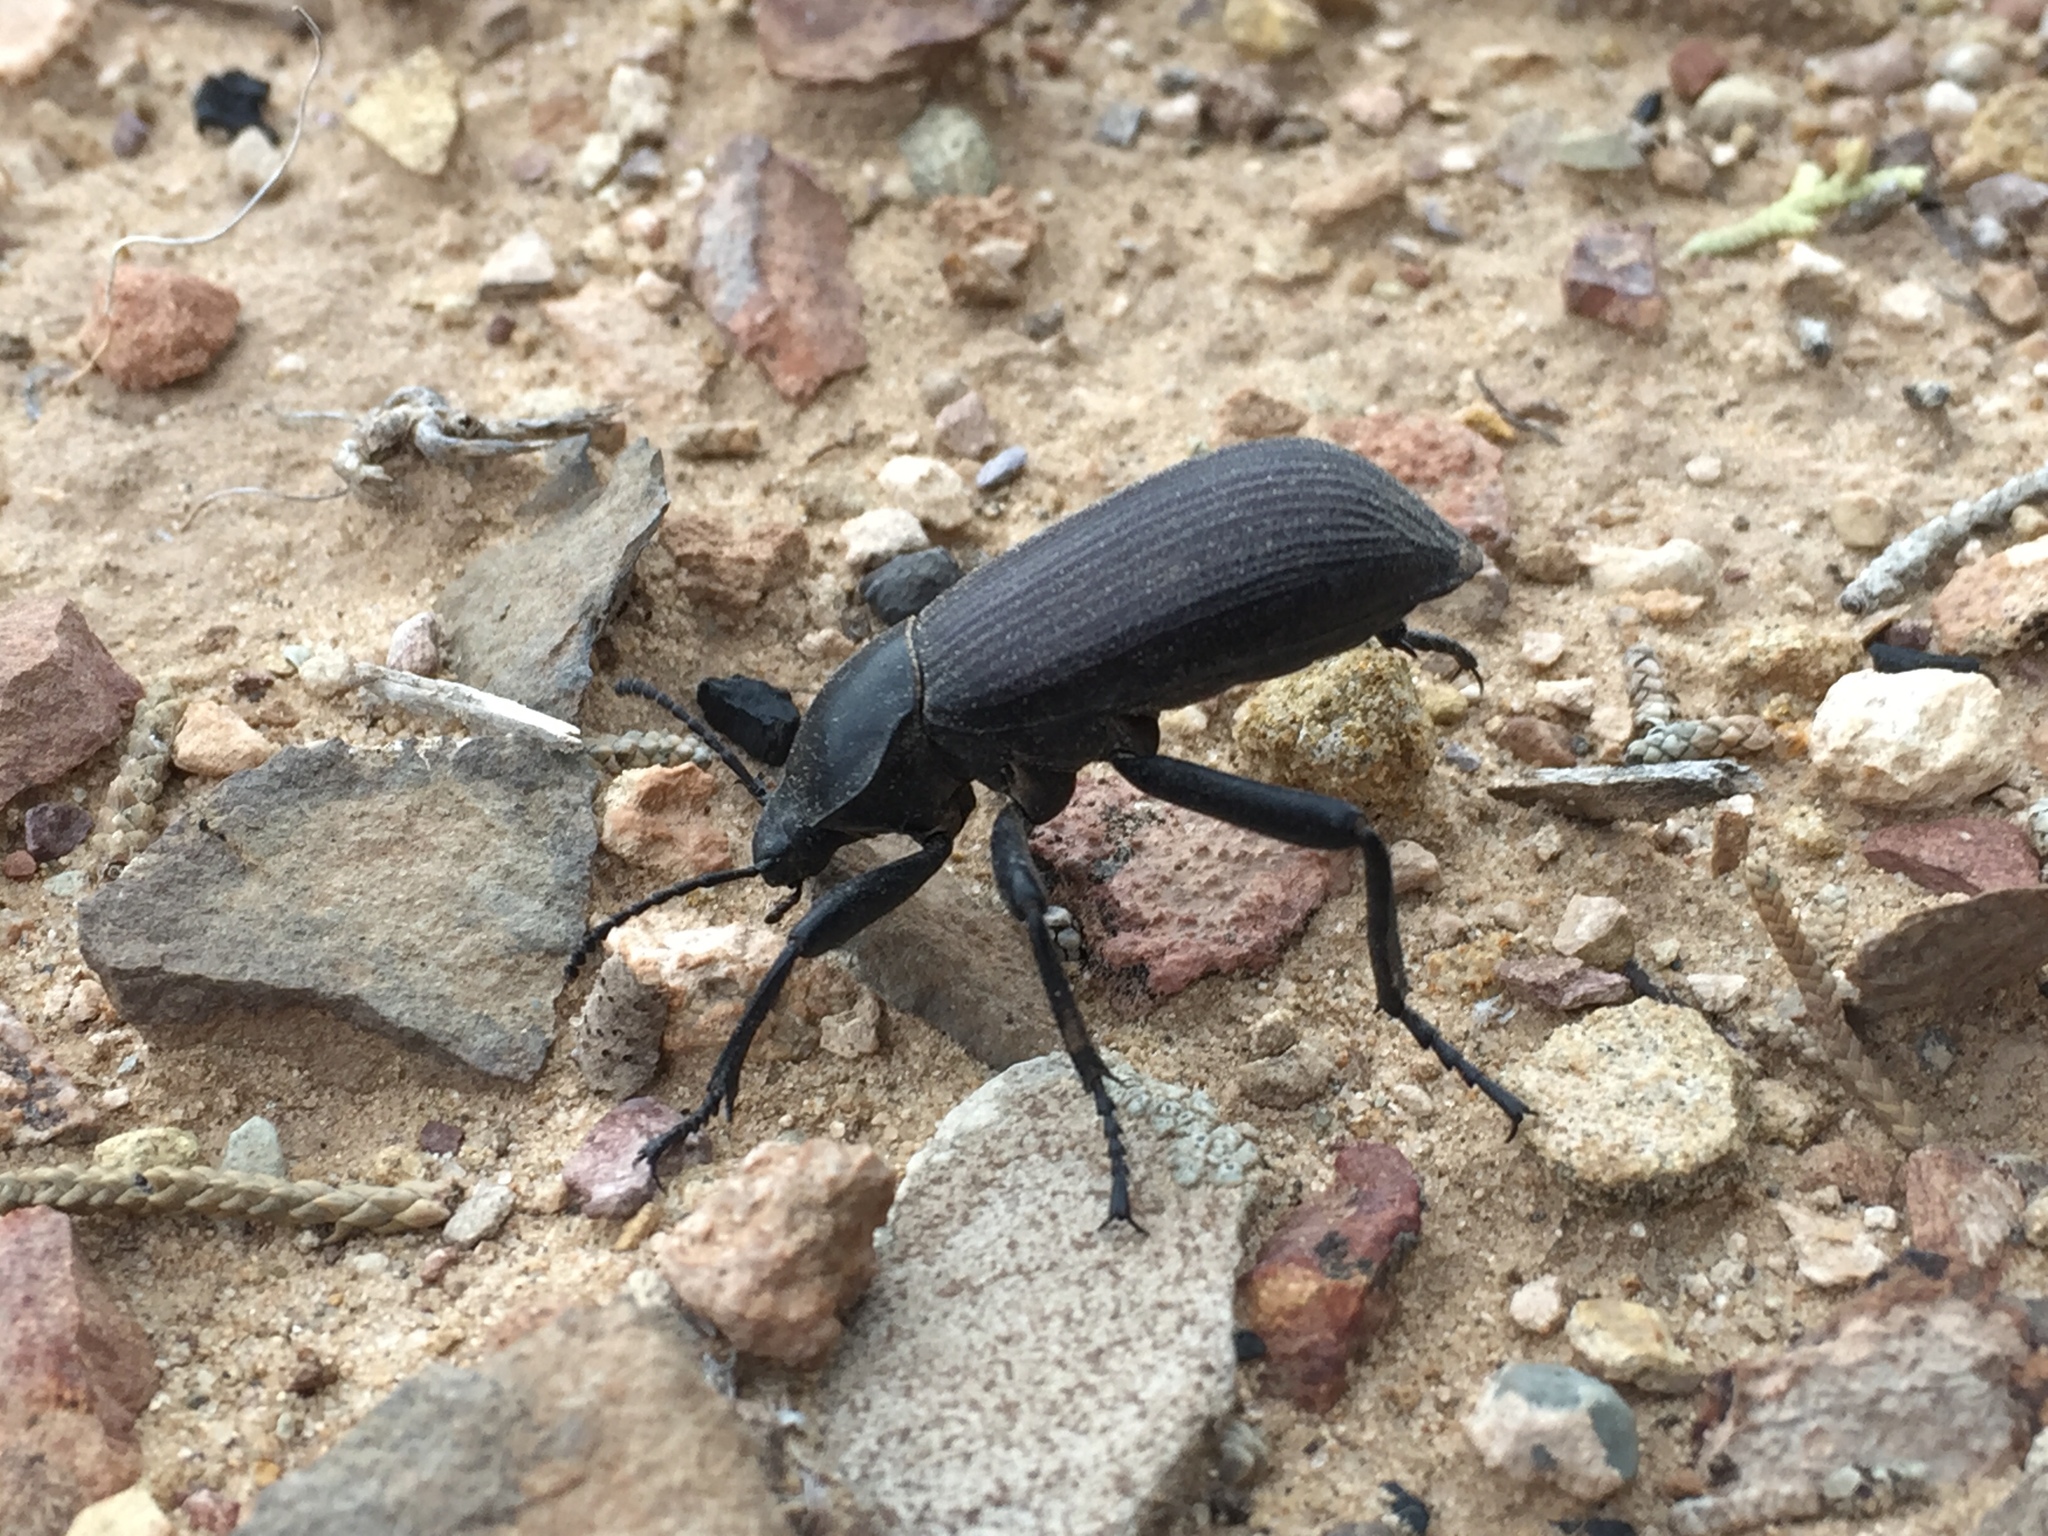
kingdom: Animalia
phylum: Arthropoda
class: Insecta
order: Coleoptera
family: Tenebrionidae
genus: Eleodes
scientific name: Eleodes obscura
